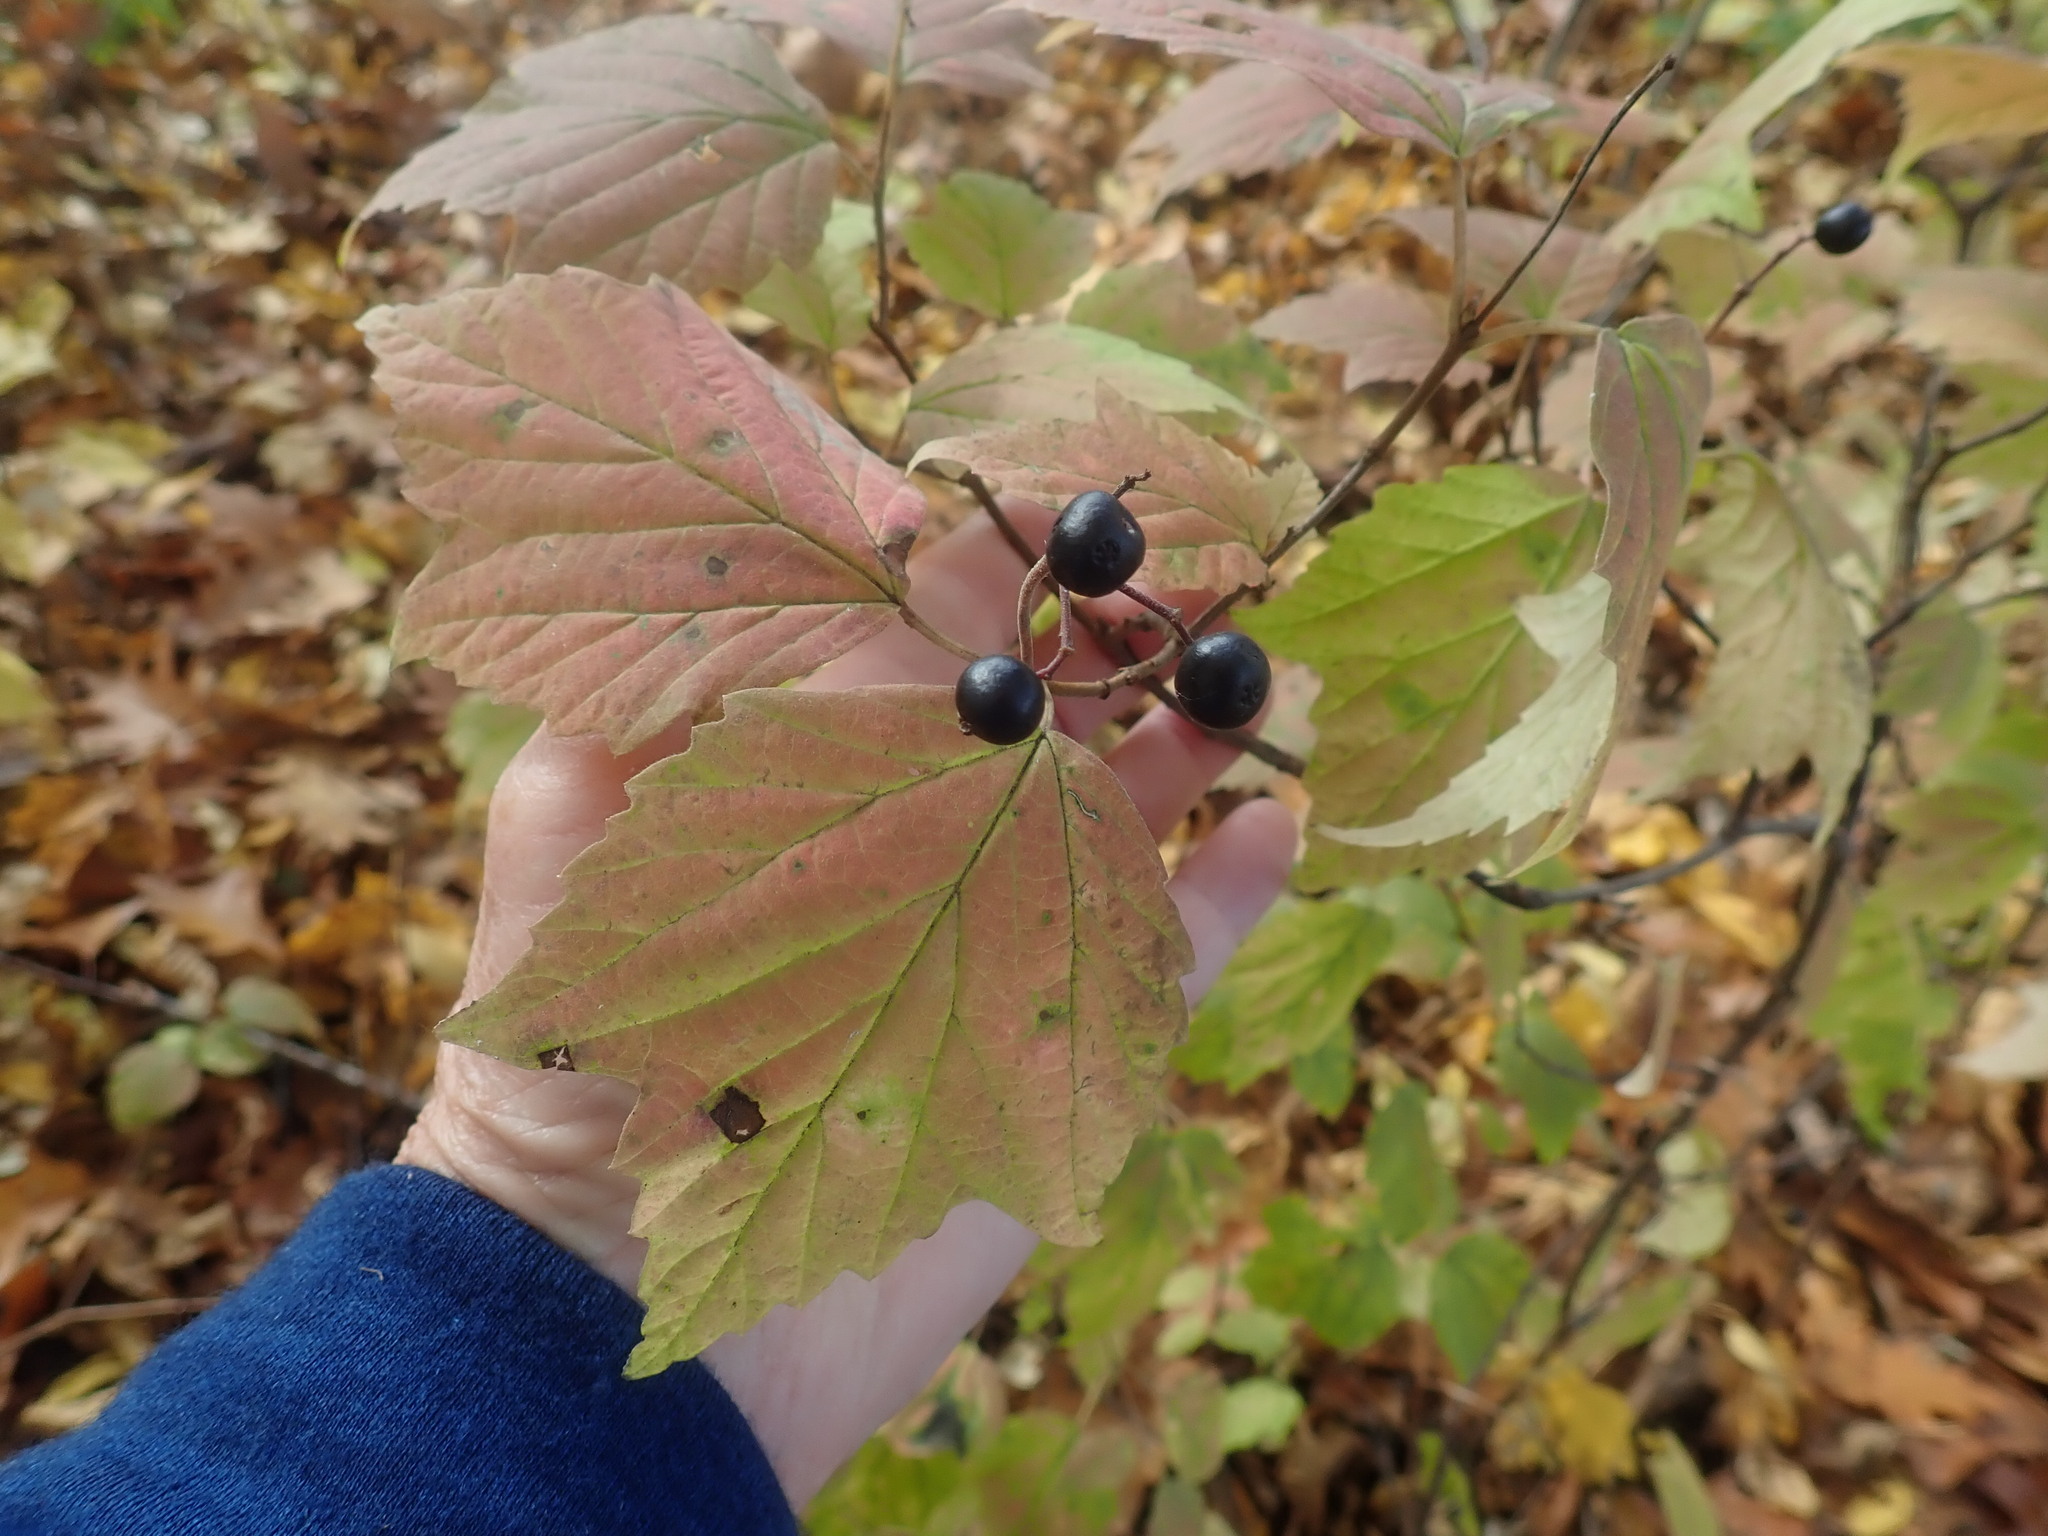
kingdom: Plantae
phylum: Tracheophyta
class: Magnoliopsida
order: Dipsacales
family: Viburnaceae
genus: Viburnum
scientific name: Viburnum acerifolium
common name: Dockmackie
